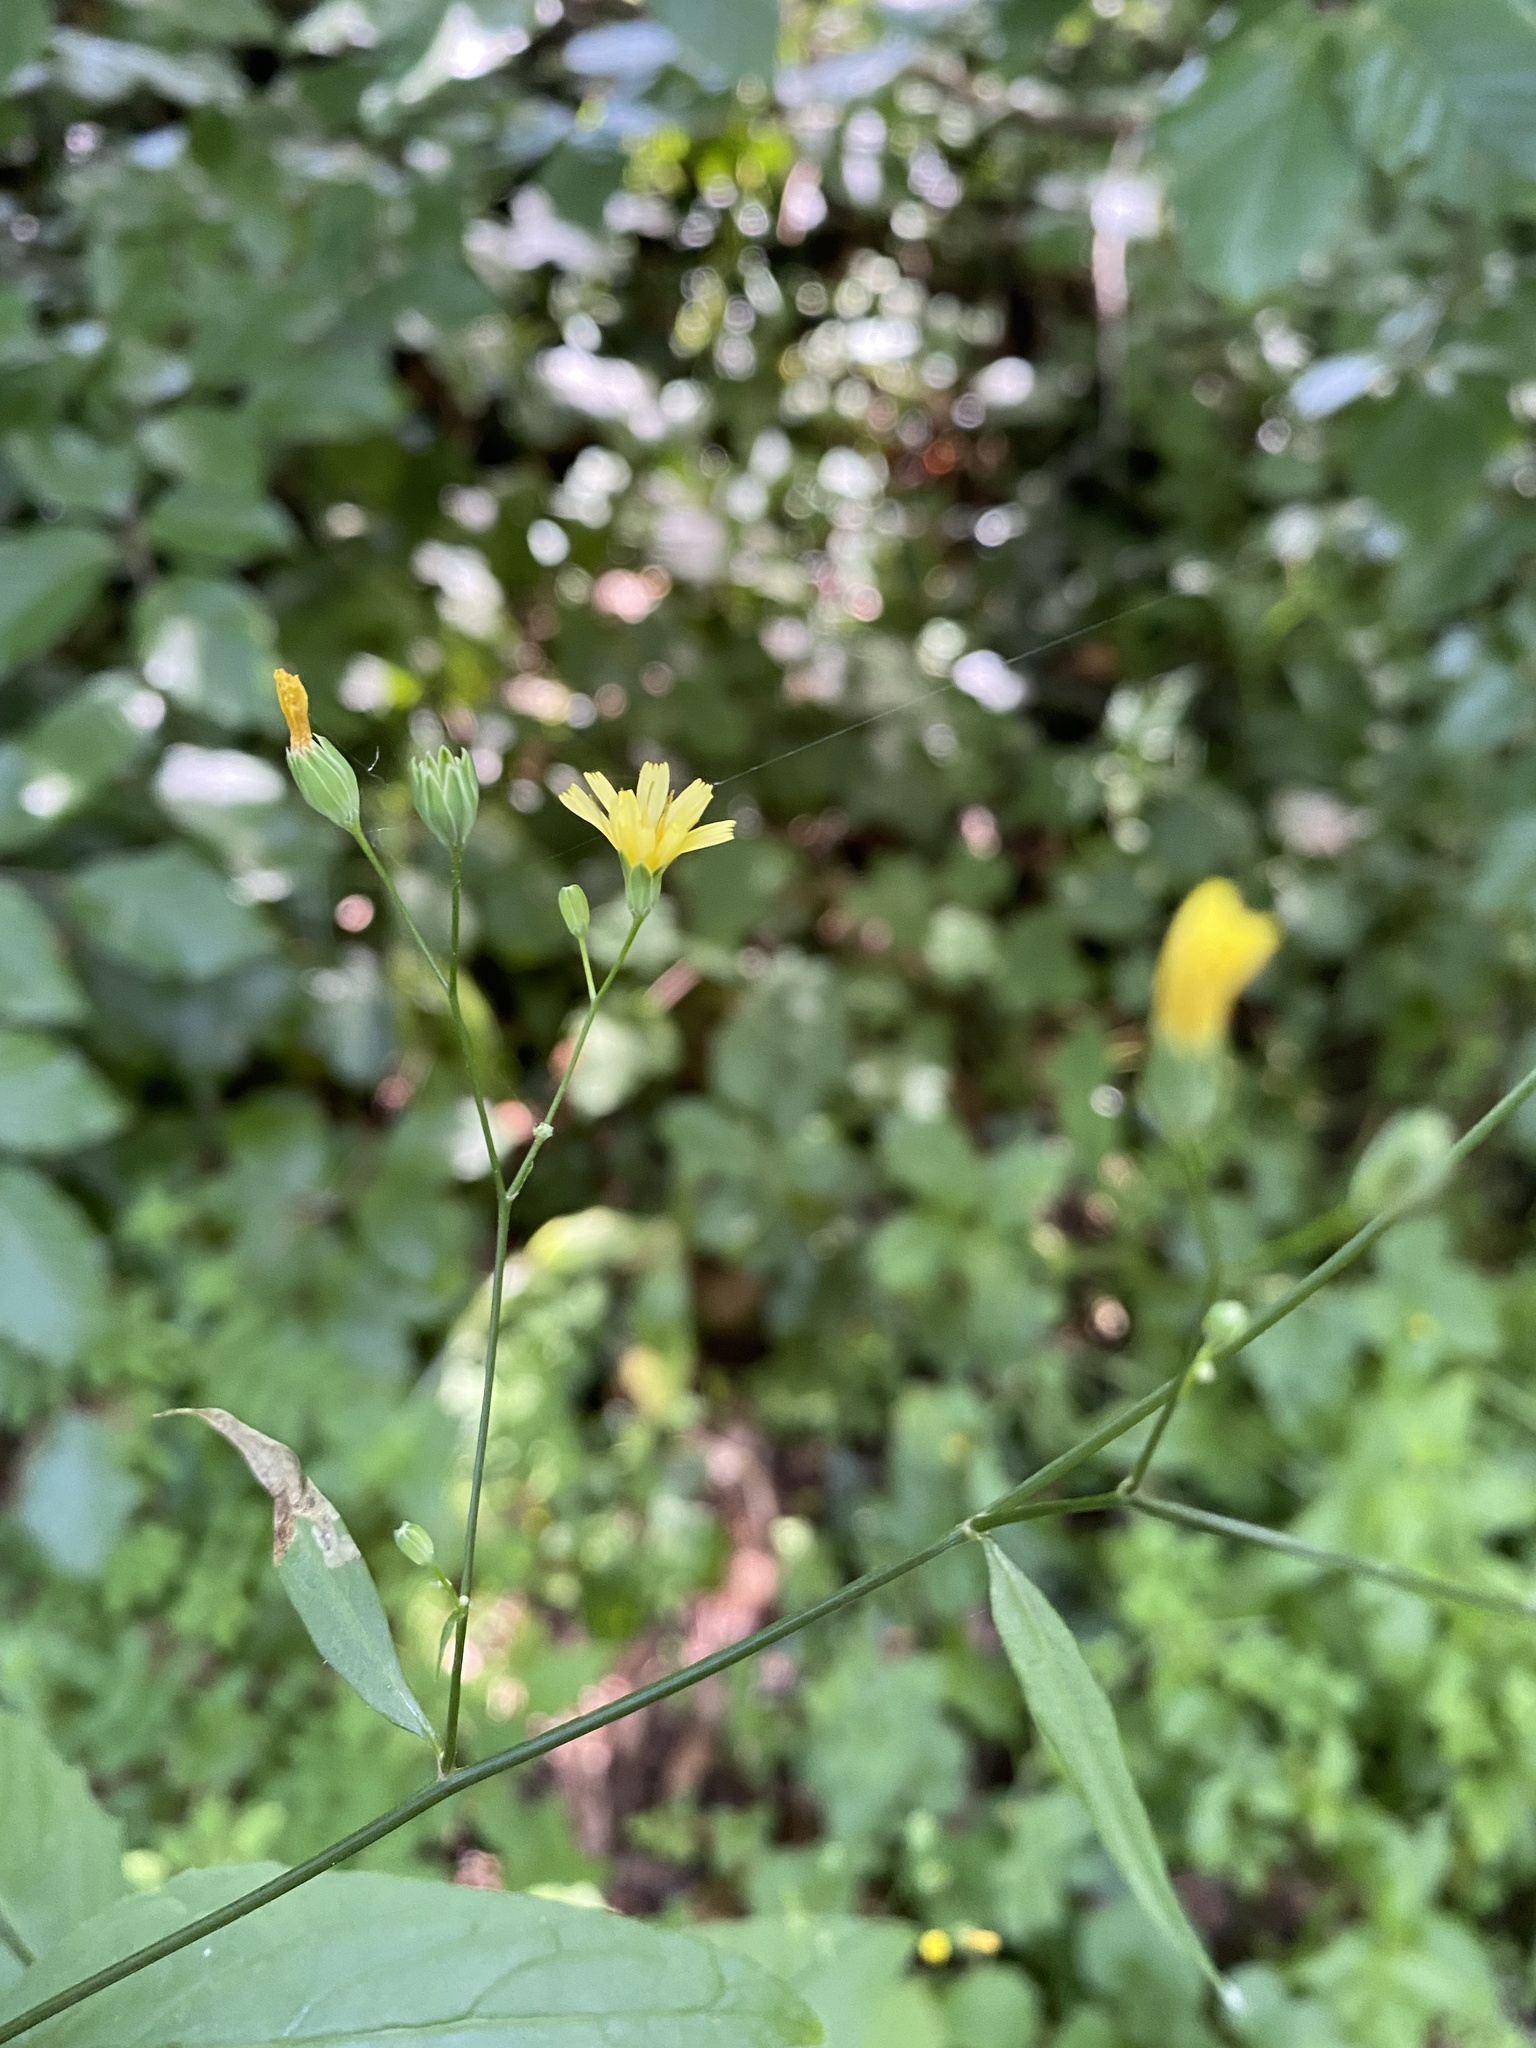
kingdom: Plantae
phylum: Tracheophyta
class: Magnoliopsida
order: Asterales
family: Asteraceae
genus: Lapsana
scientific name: Lapsana communis
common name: Nipplewort
